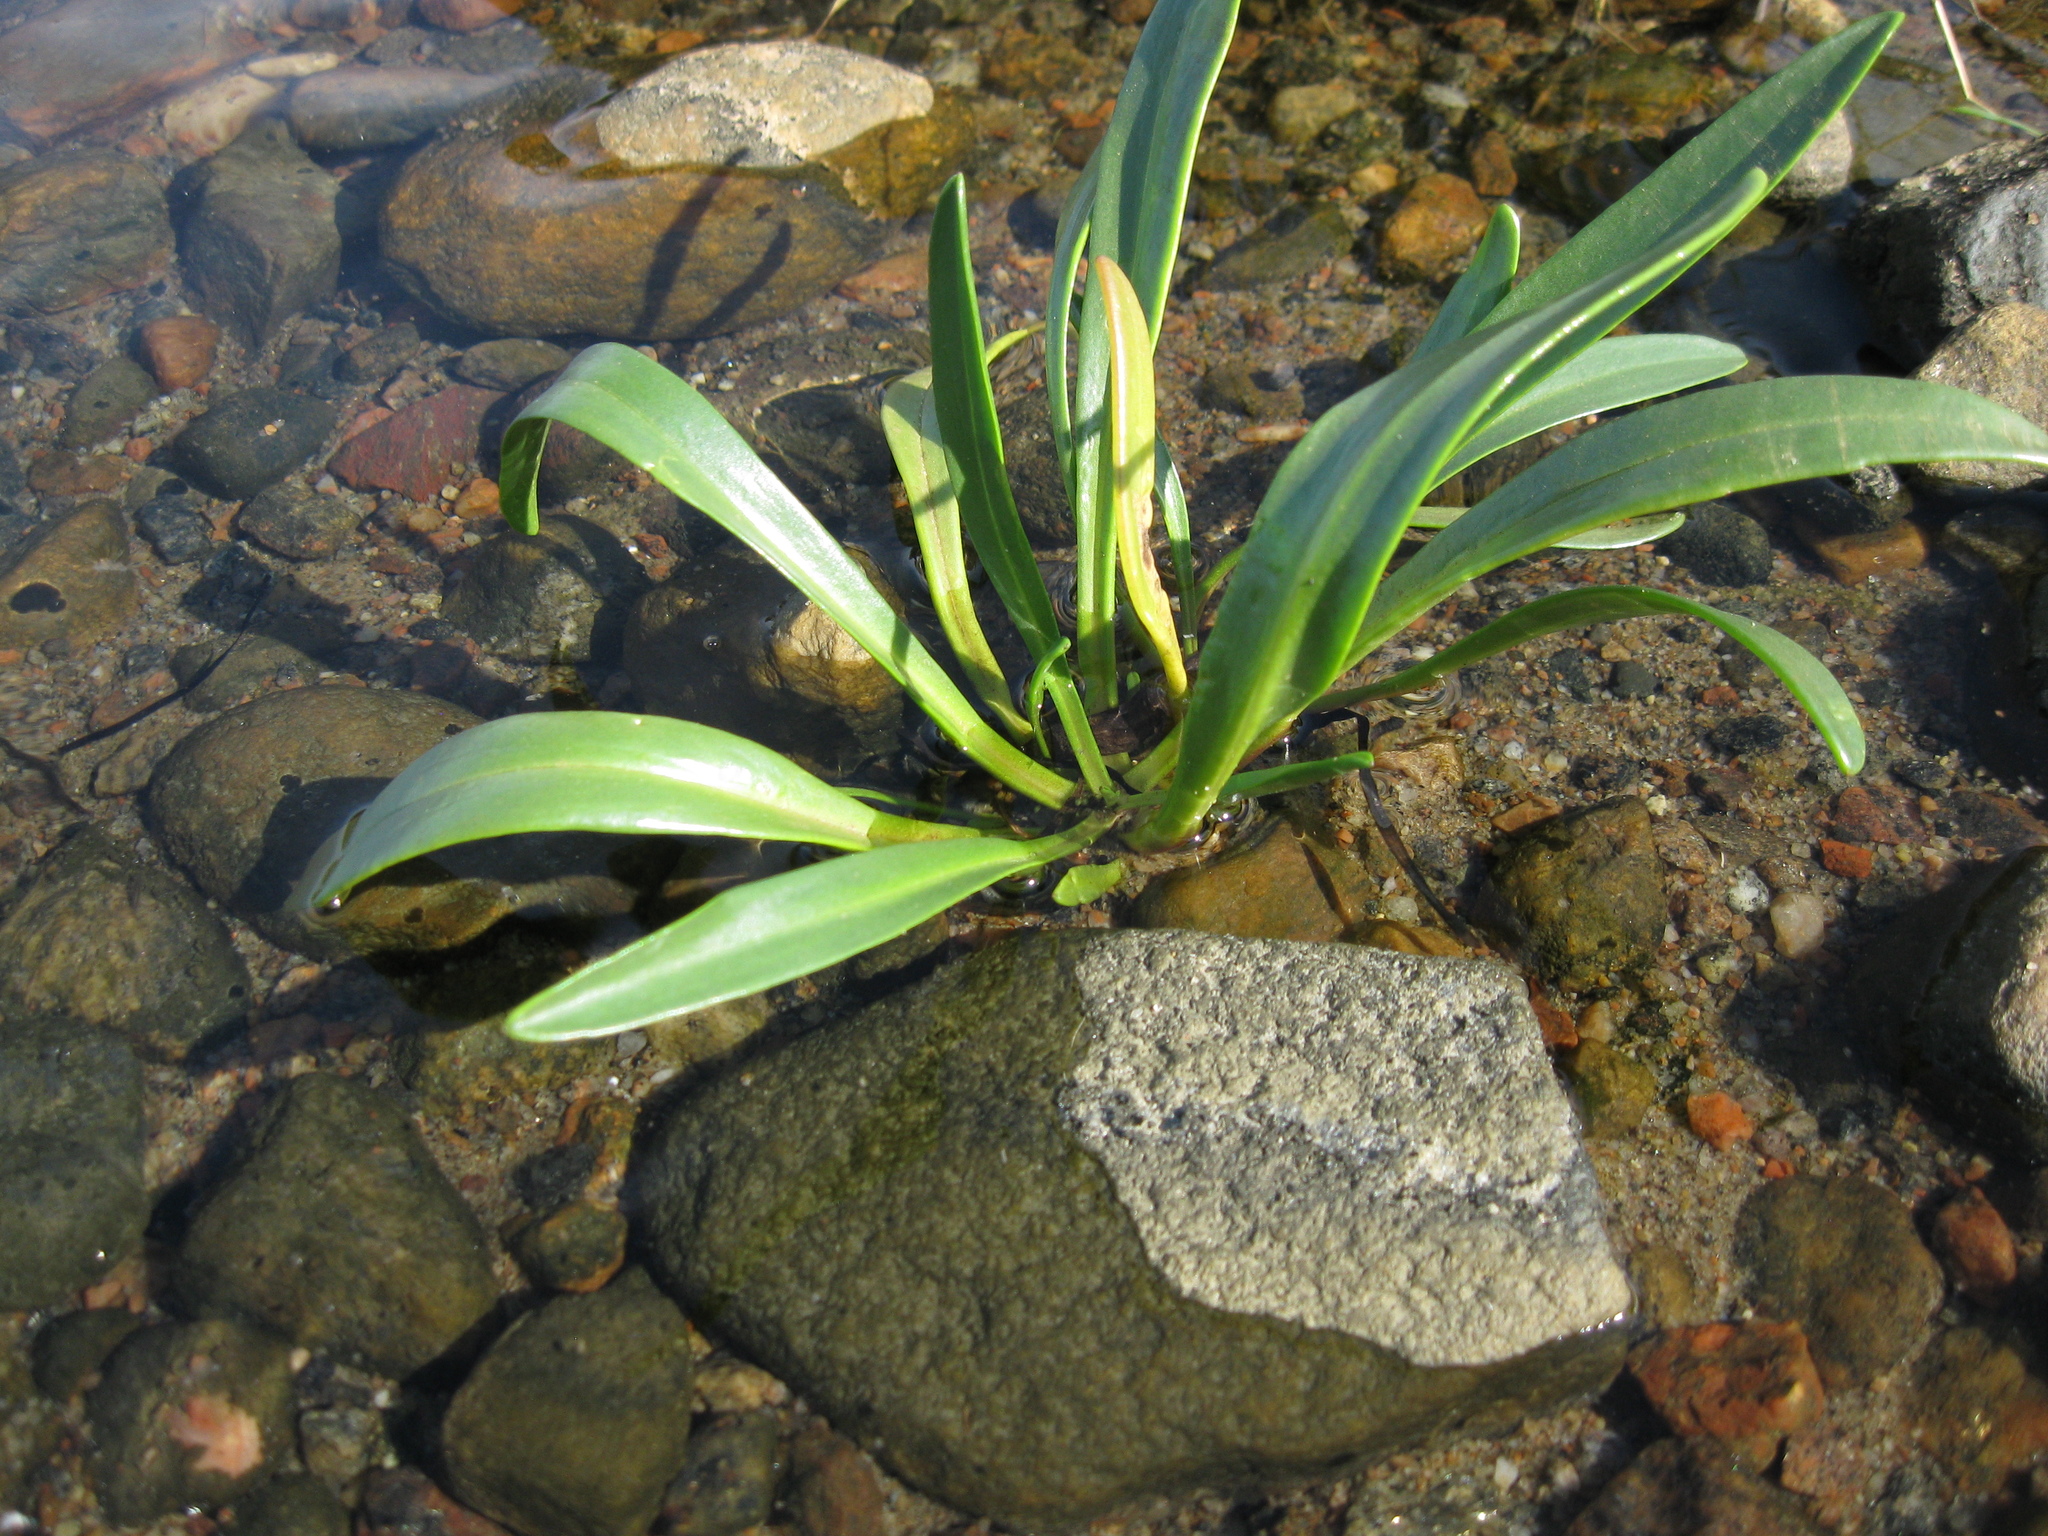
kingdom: Plantae
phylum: Tracheophyta
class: Magnoliopsida
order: Asterales
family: Asteraceae
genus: Tripolium
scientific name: Tripolium pannonicum
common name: Sea aster
